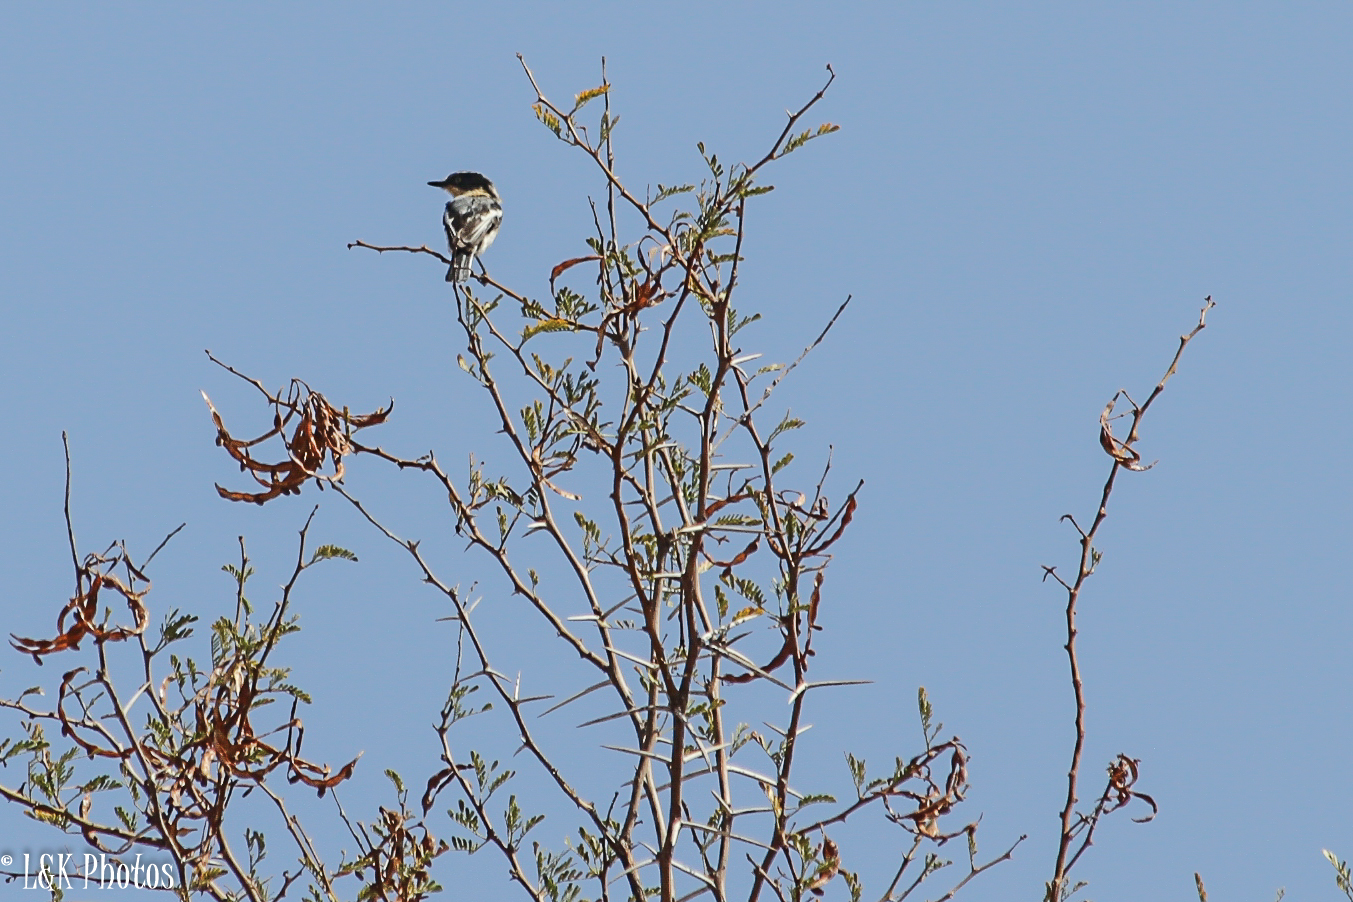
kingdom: Animalia
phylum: Chordata
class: Aves
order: Passeriformes
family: Platysteiridae
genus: Batis
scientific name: Batis pririt
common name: Pririt batis
